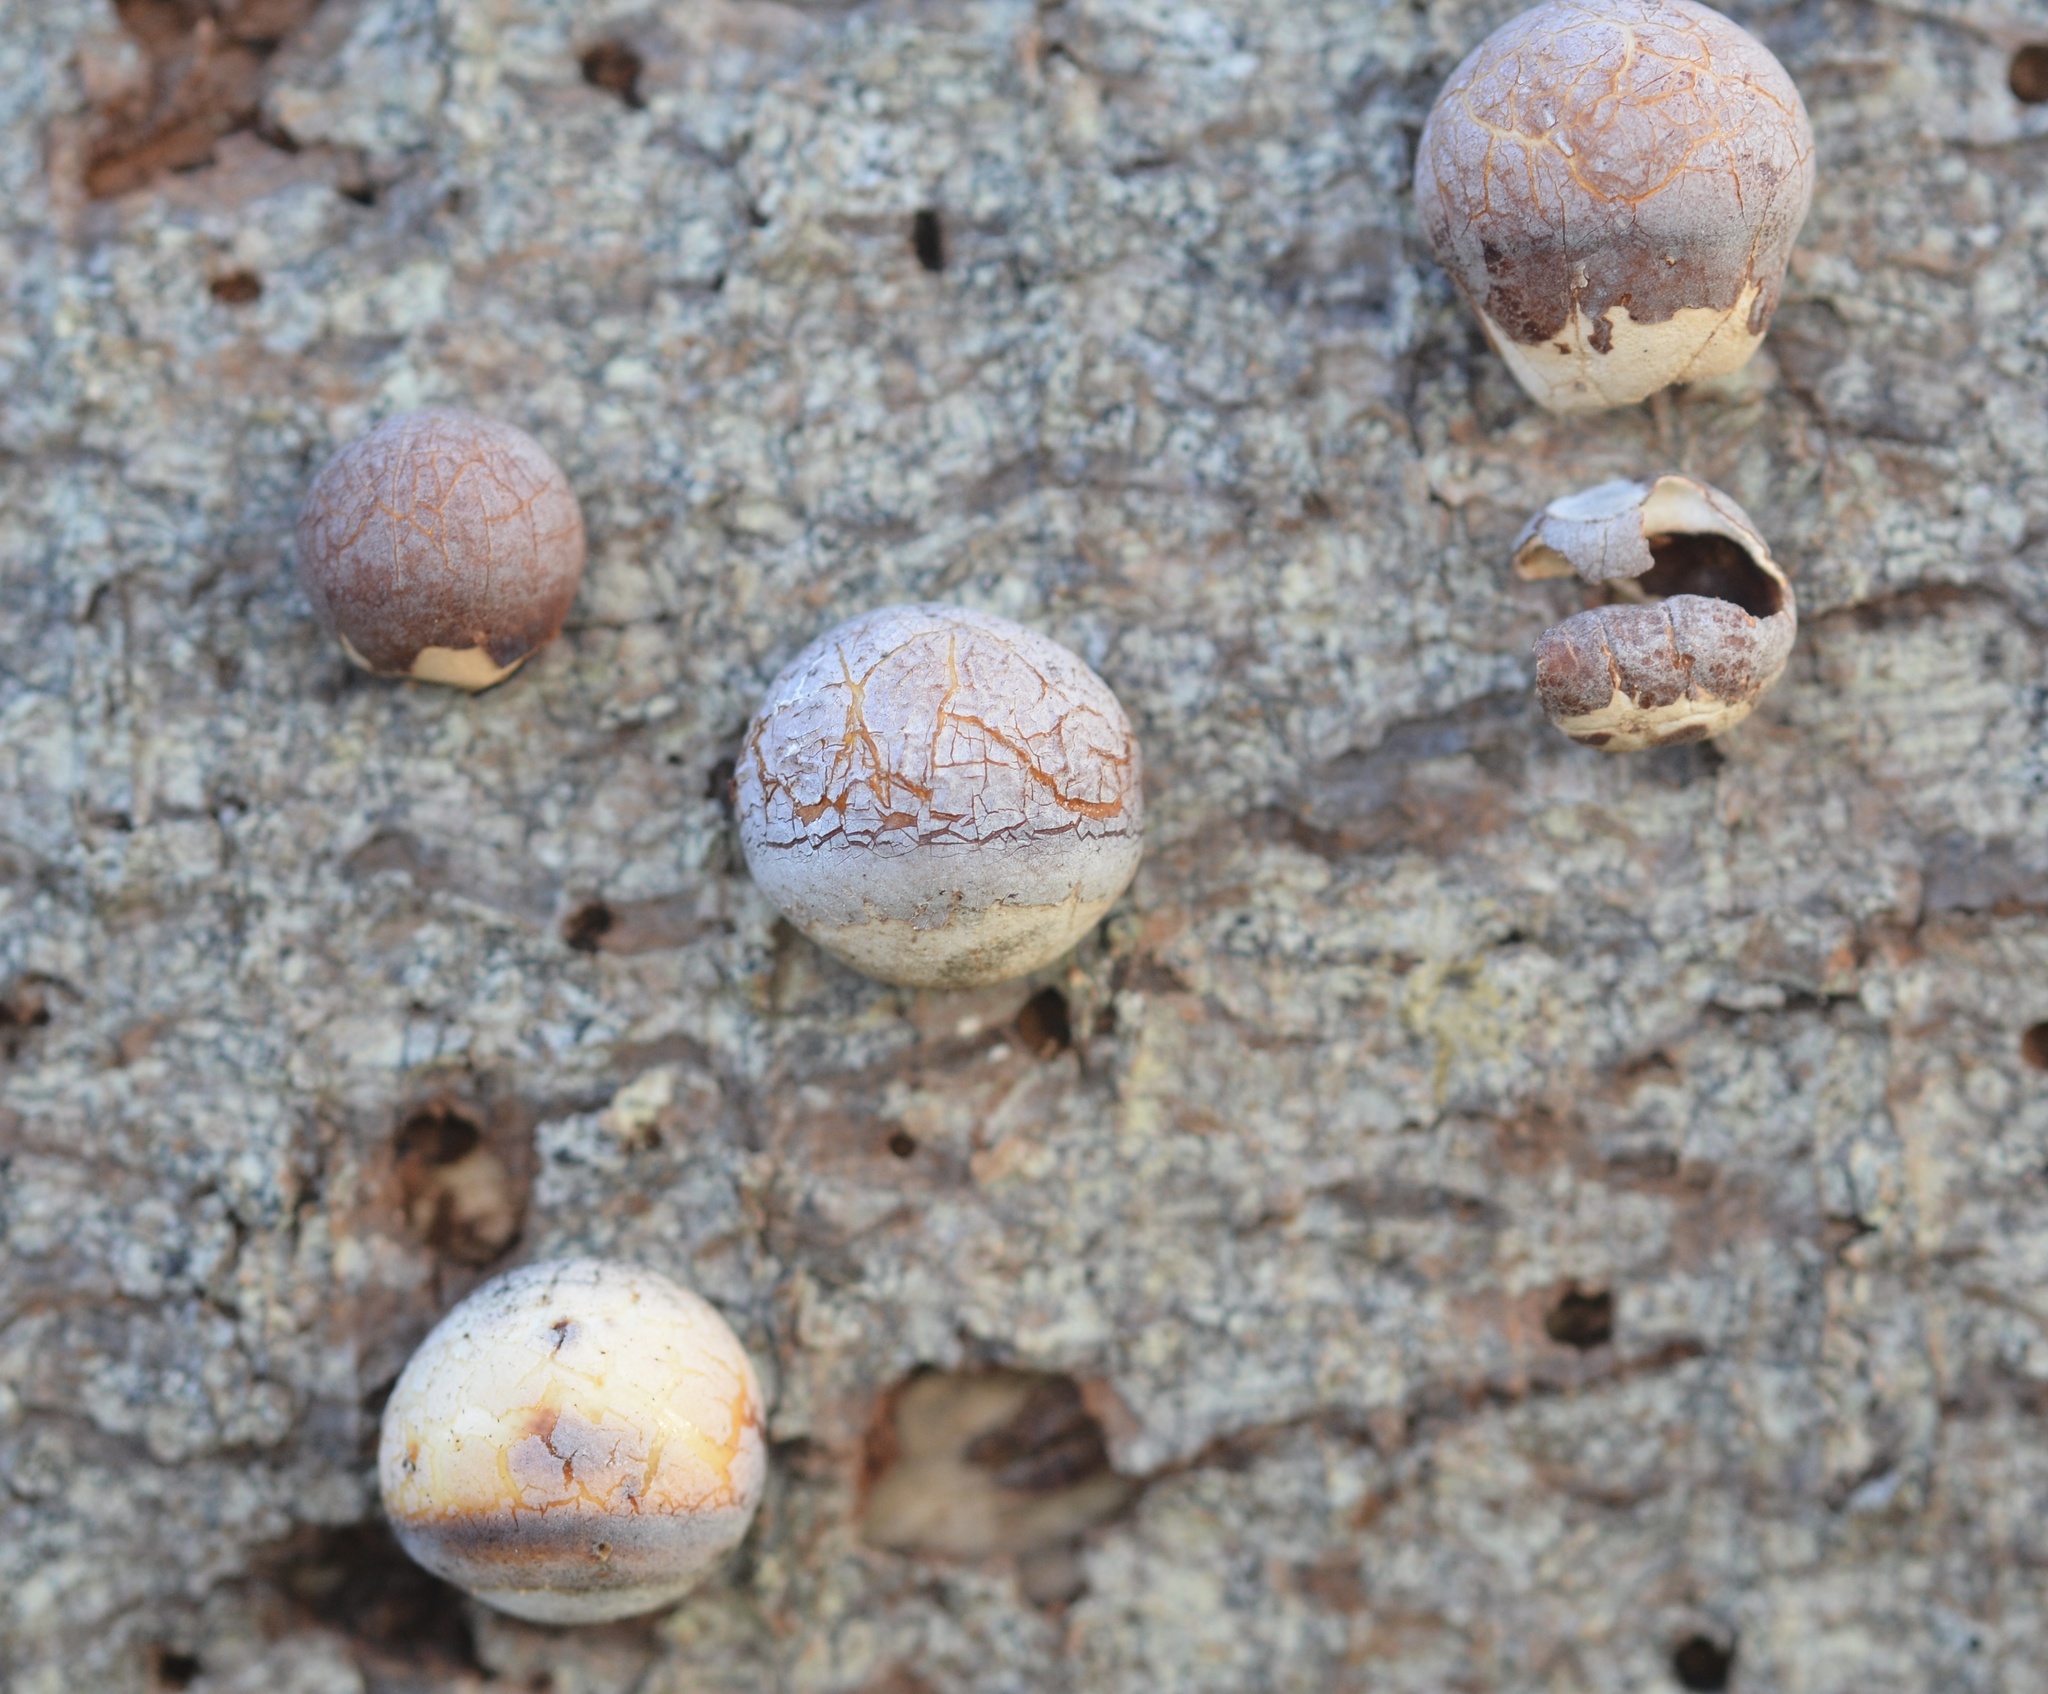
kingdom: Fungi
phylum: Basidiomycota
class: Agaricomycetes
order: Polyporales
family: Polyporaceae
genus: Cryptoporus
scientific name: Cryptoporus volvatus
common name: Veiled polypore
